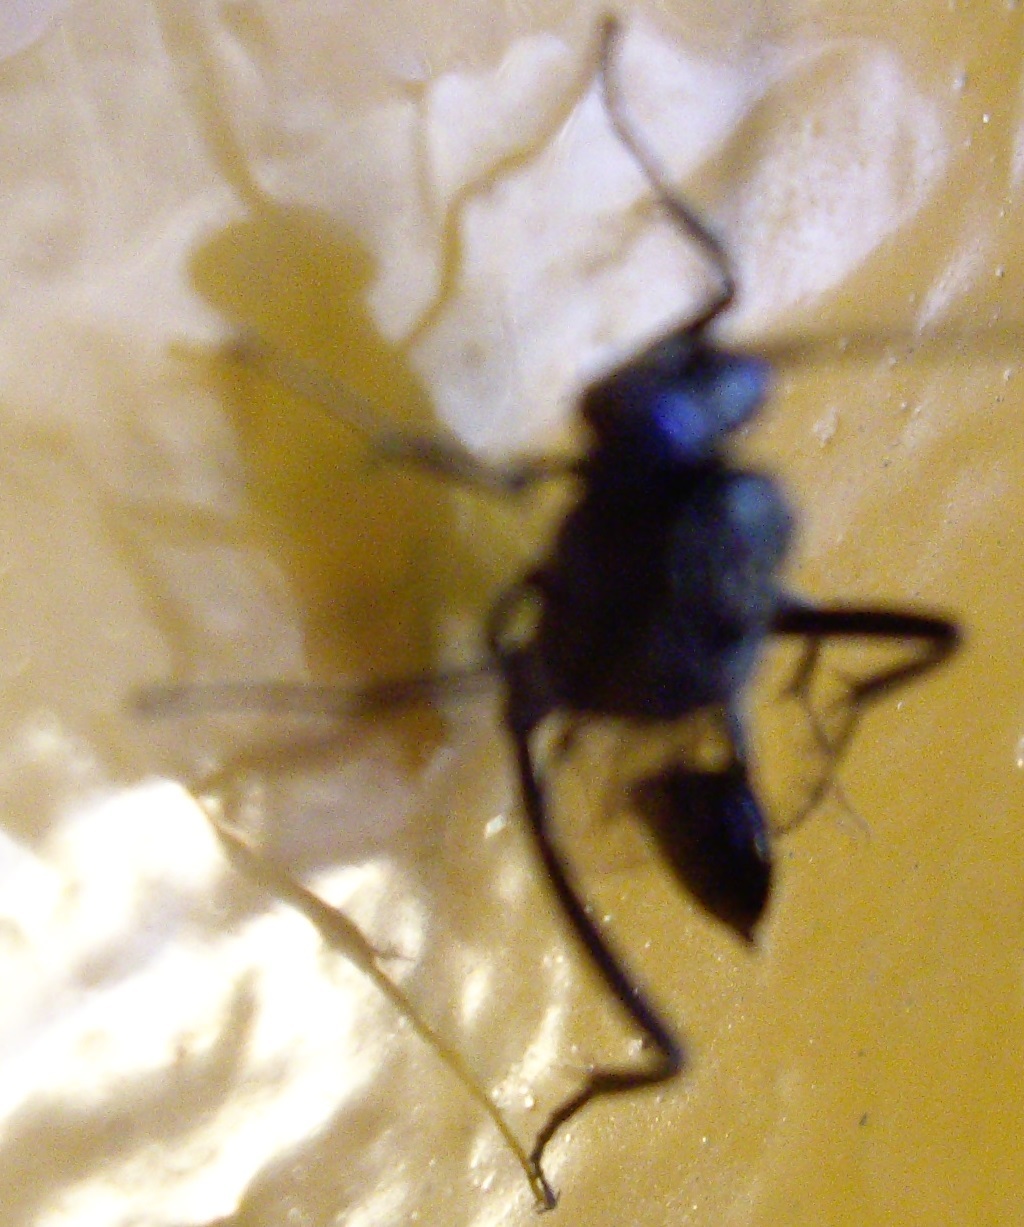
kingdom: Animalia
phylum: Arthropoda
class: Insecta
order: Hymenoptera
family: Evaniidae
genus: Evania
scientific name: Evania appendigaster
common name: Ensign wasp
